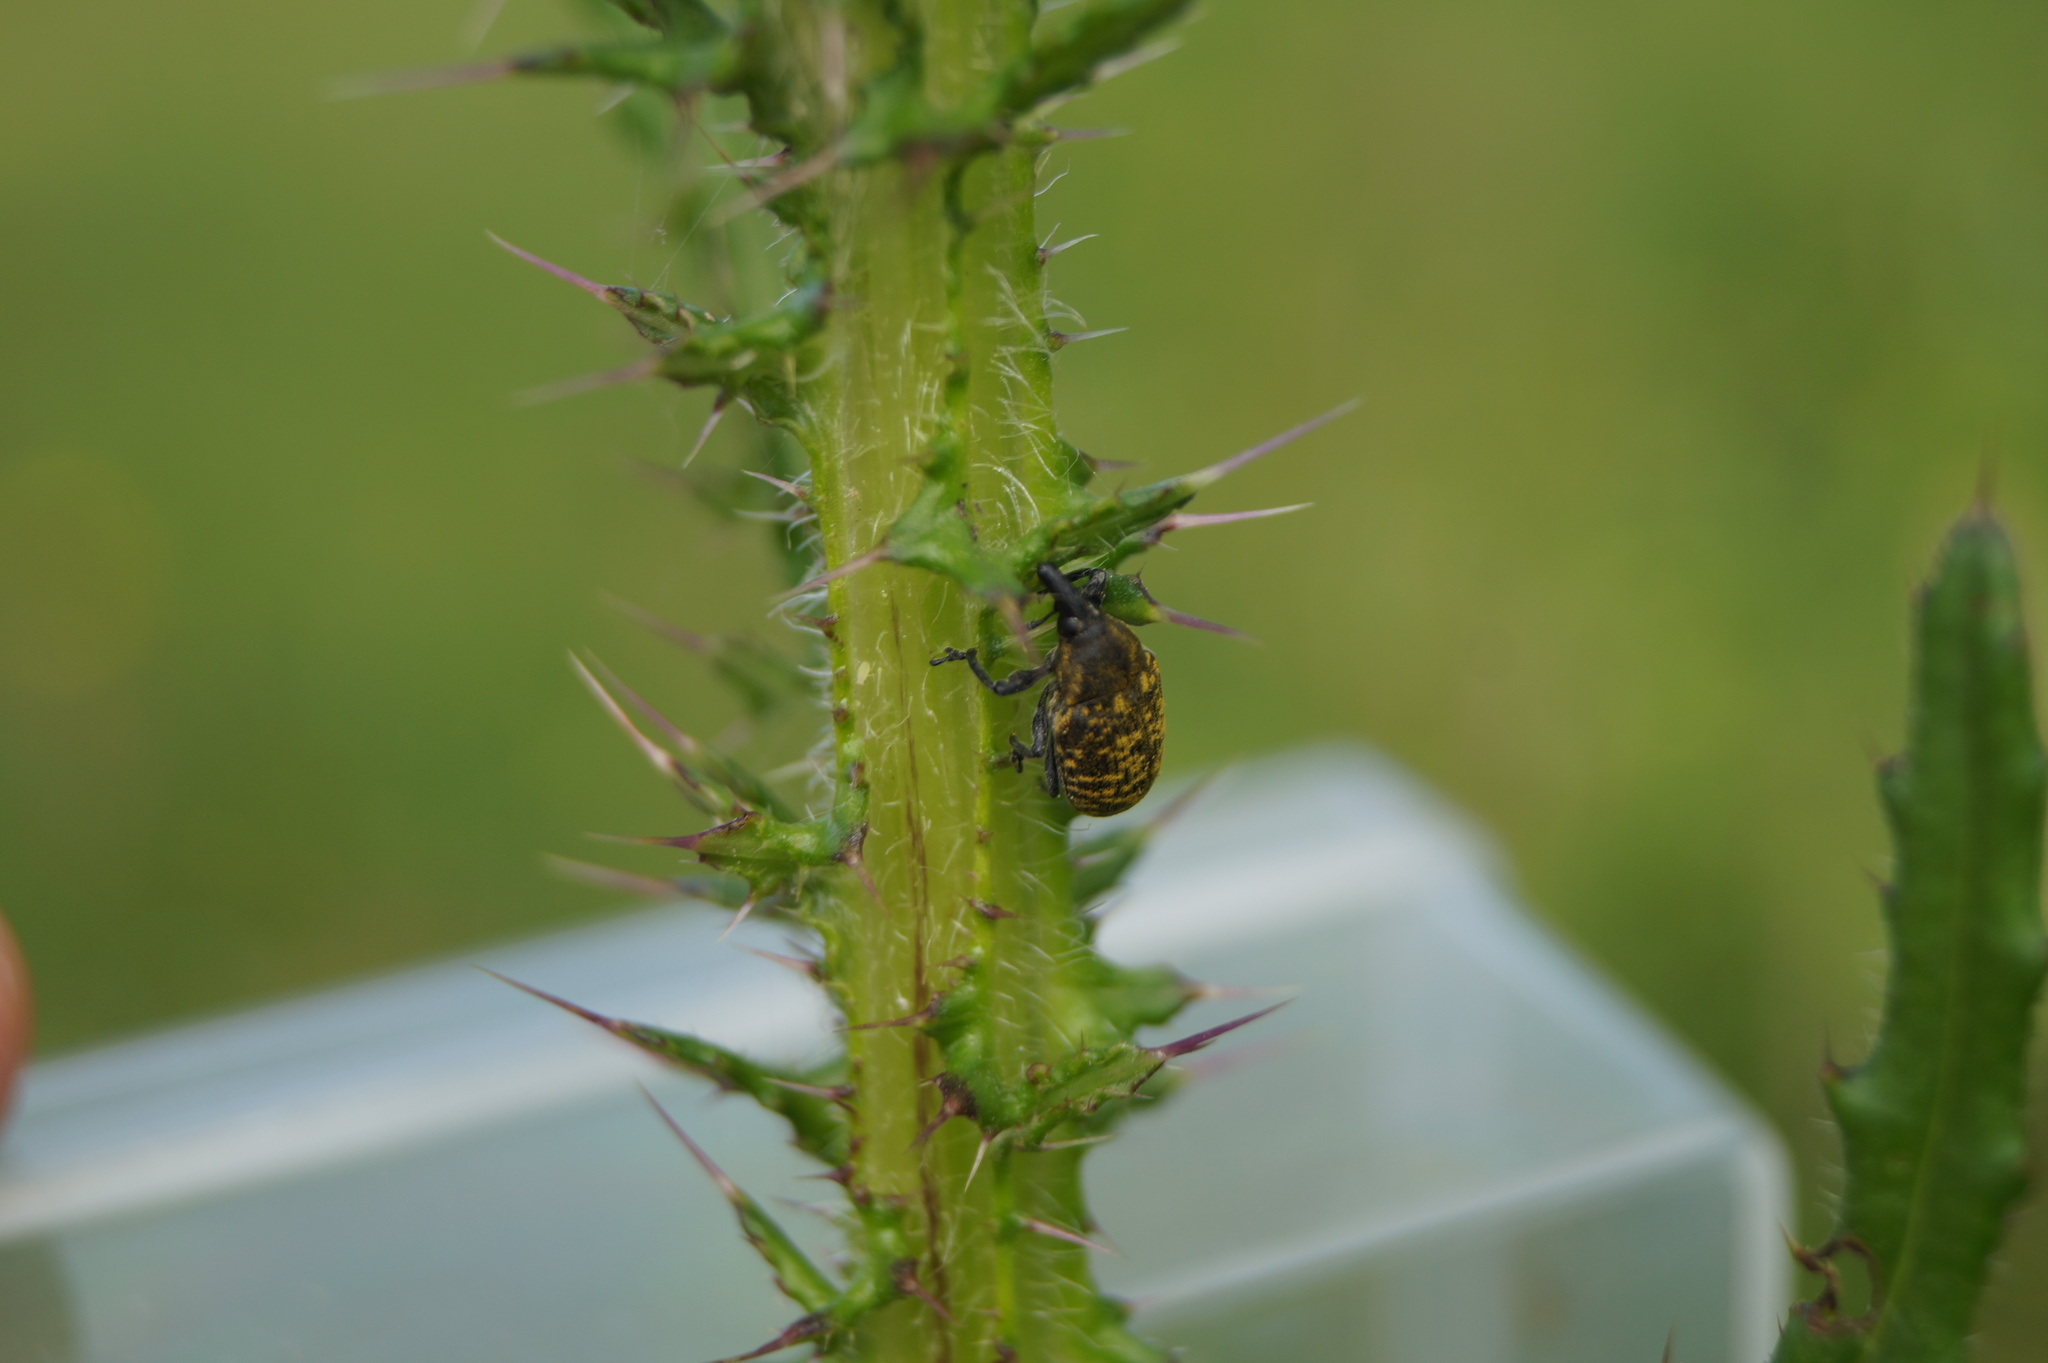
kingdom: Animalia
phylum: Arthropoda
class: Insecta
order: Coleoptera
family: Curculionidae
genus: Larinus
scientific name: Larinus turbinatus
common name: Weevil
